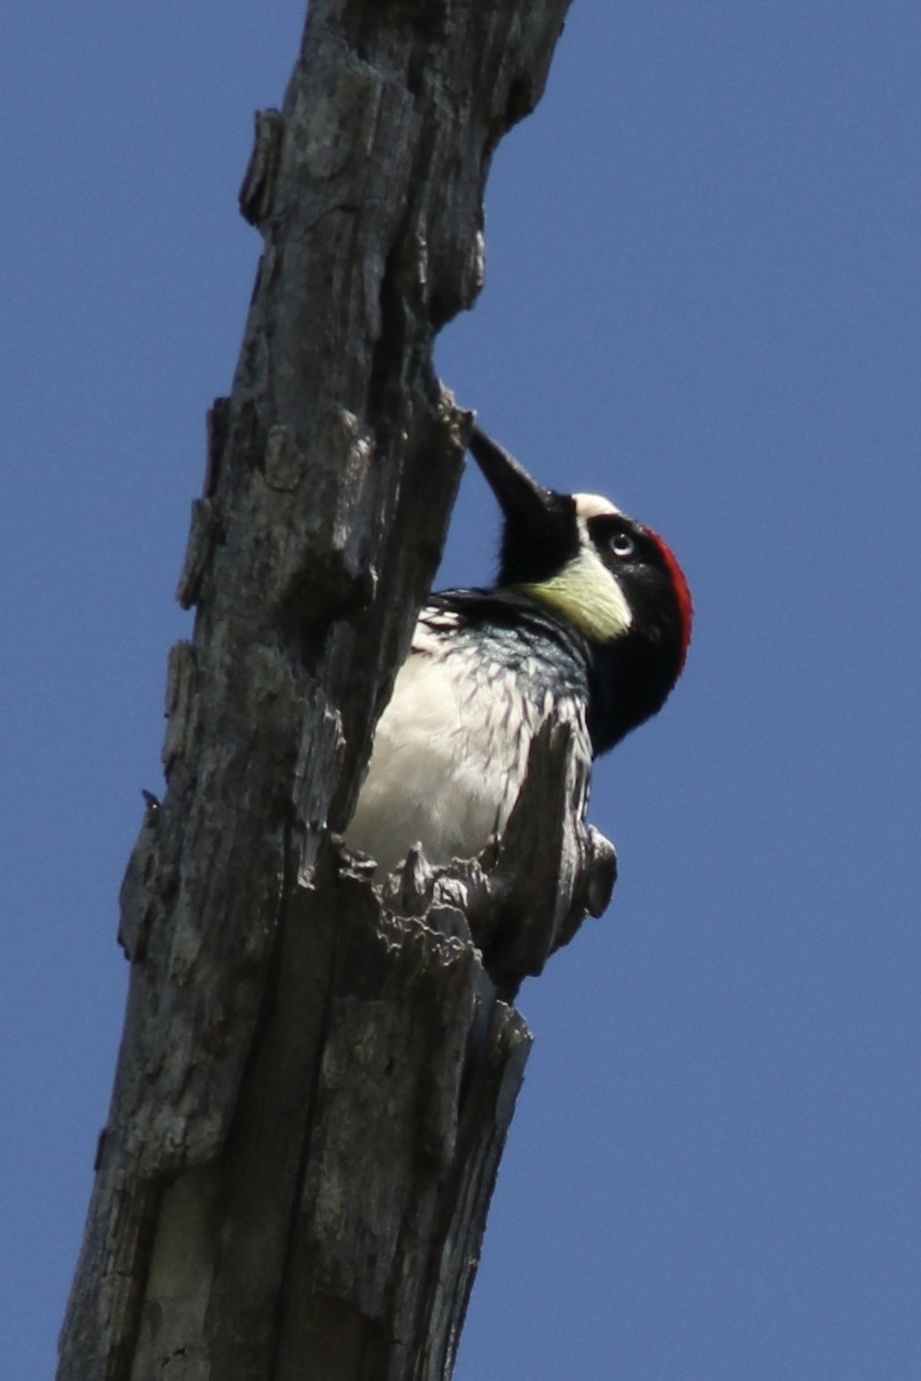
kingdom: Animalia
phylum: Chordata
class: Aves
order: Piciformes
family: Picidae
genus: Melanerpes
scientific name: Melanerpes formicivorus
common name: Acorn woodpecker
